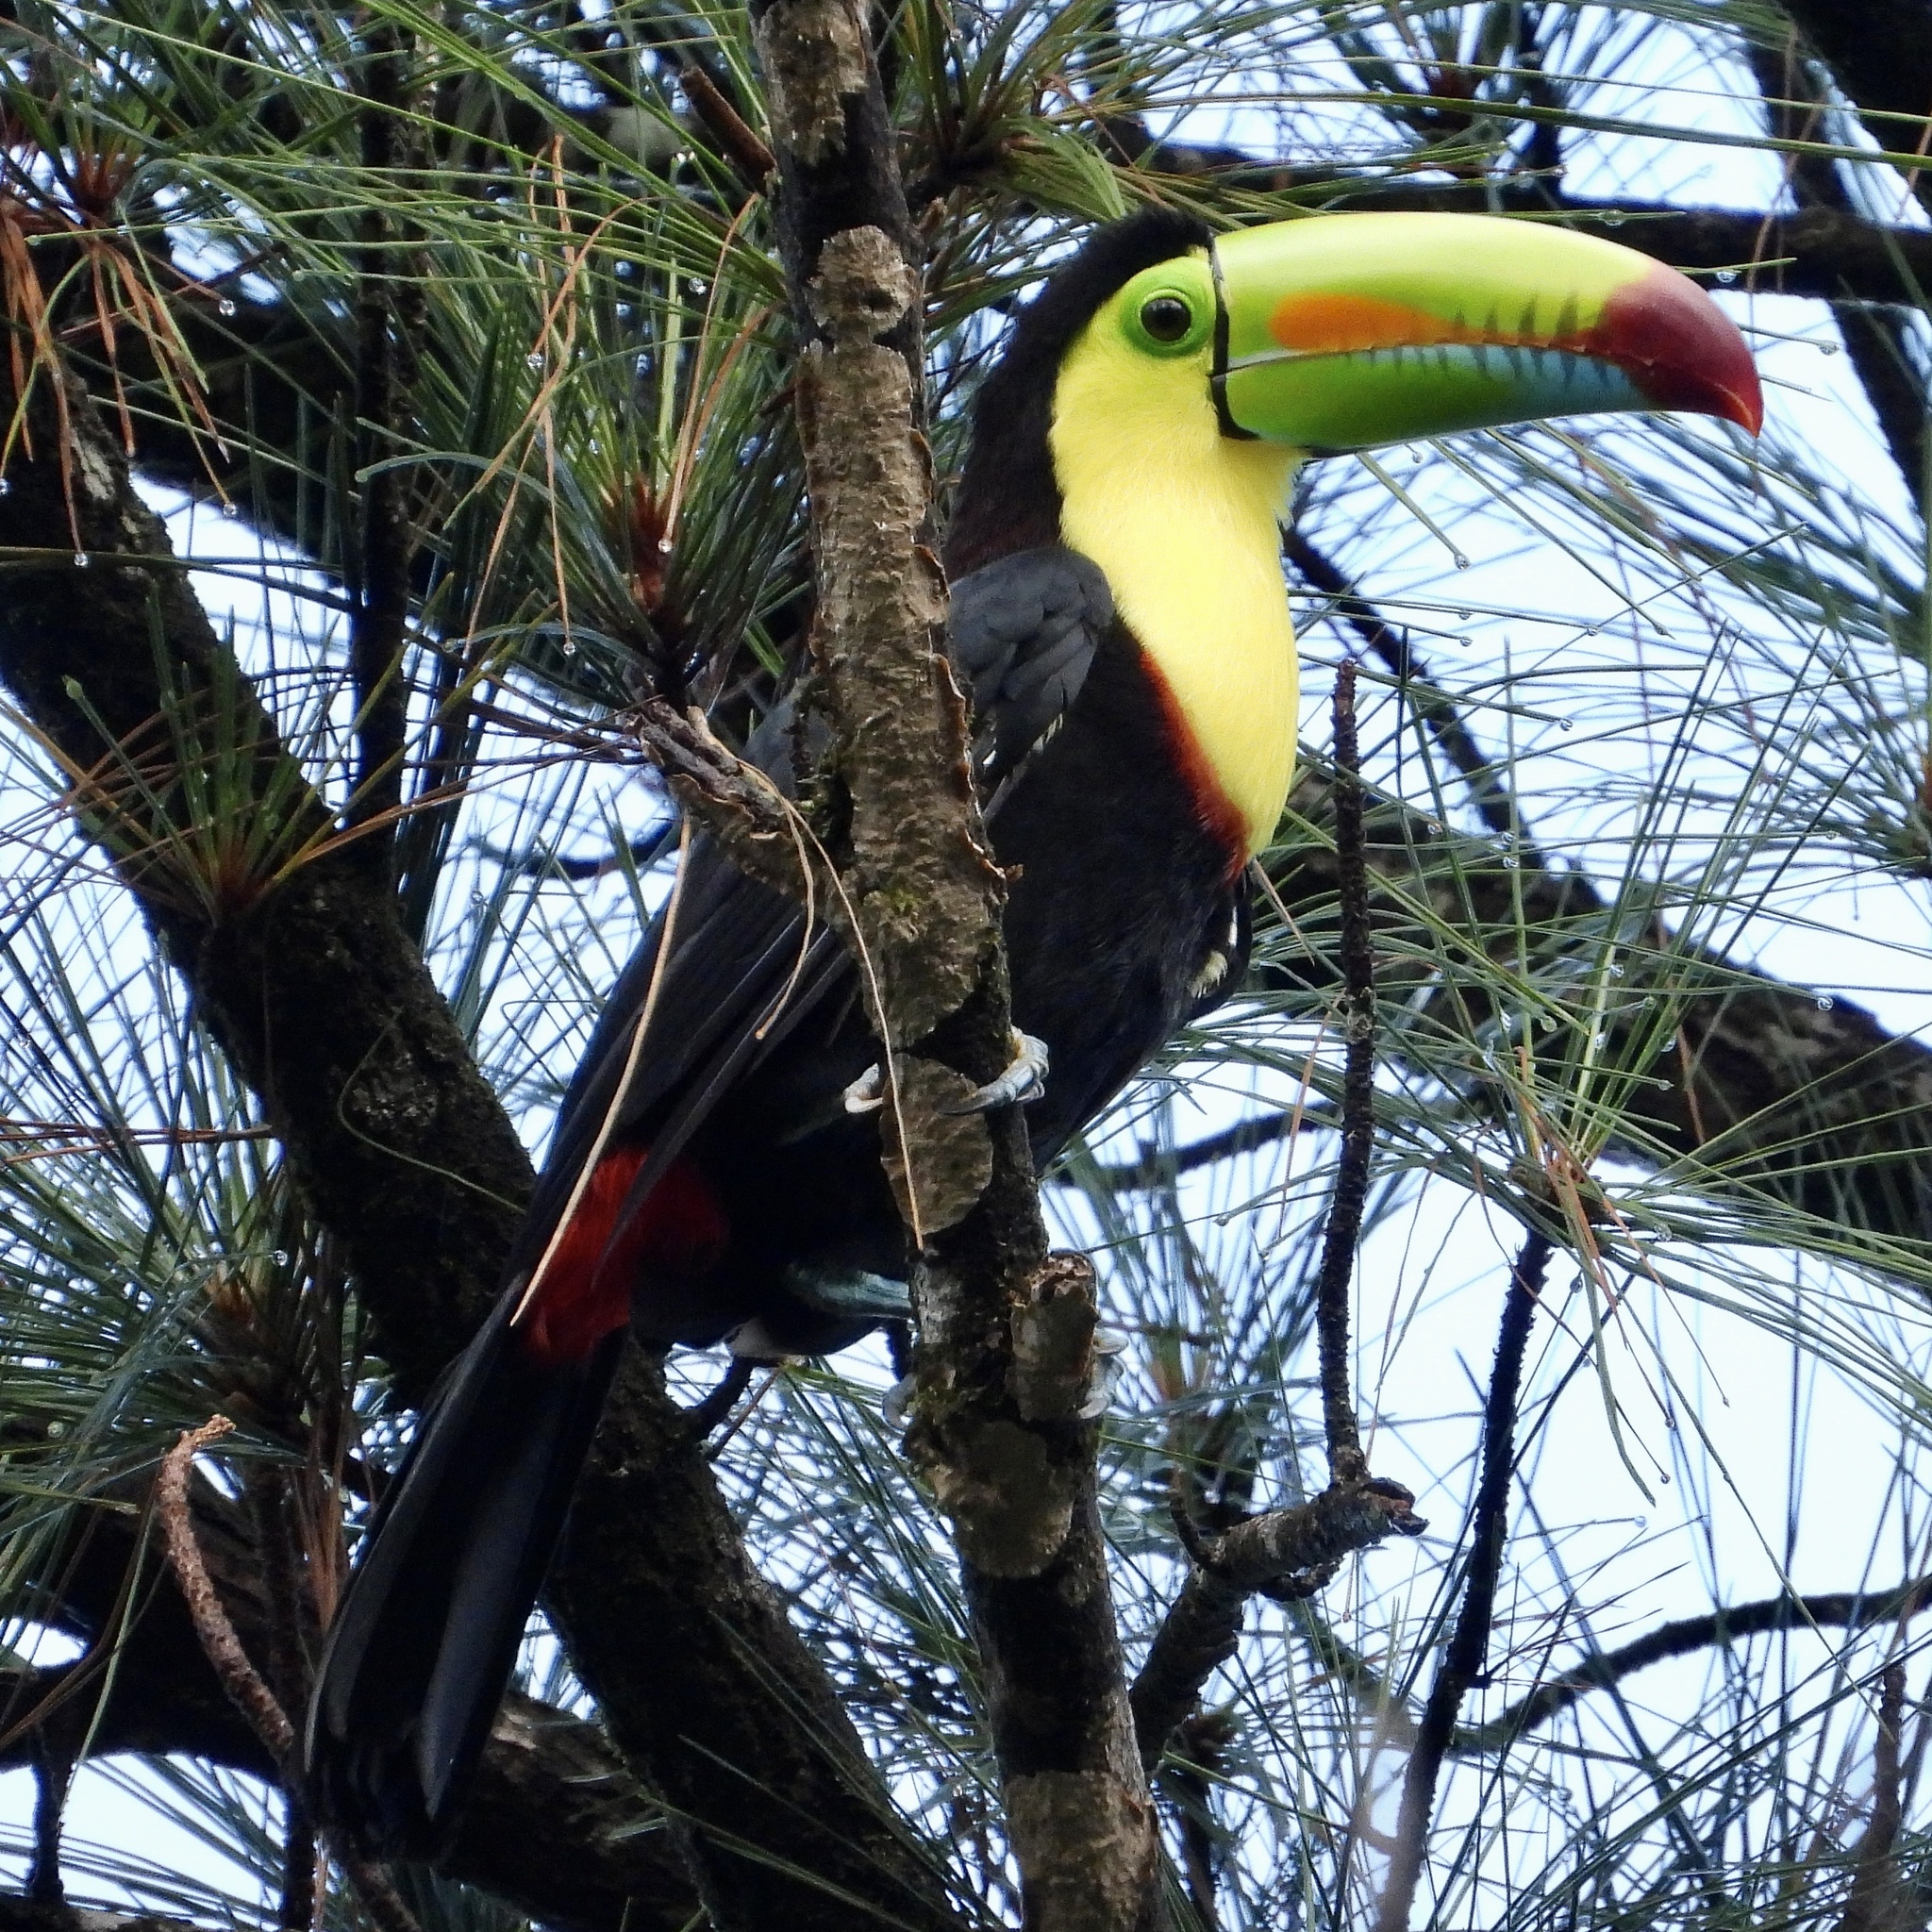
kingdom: Animalia
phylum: Chordata
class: Aves
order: Piciformes
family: Ramphastidae
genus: Ramphastos
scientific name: Ramphastos sulfuratus
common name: Keel-billed toucan
